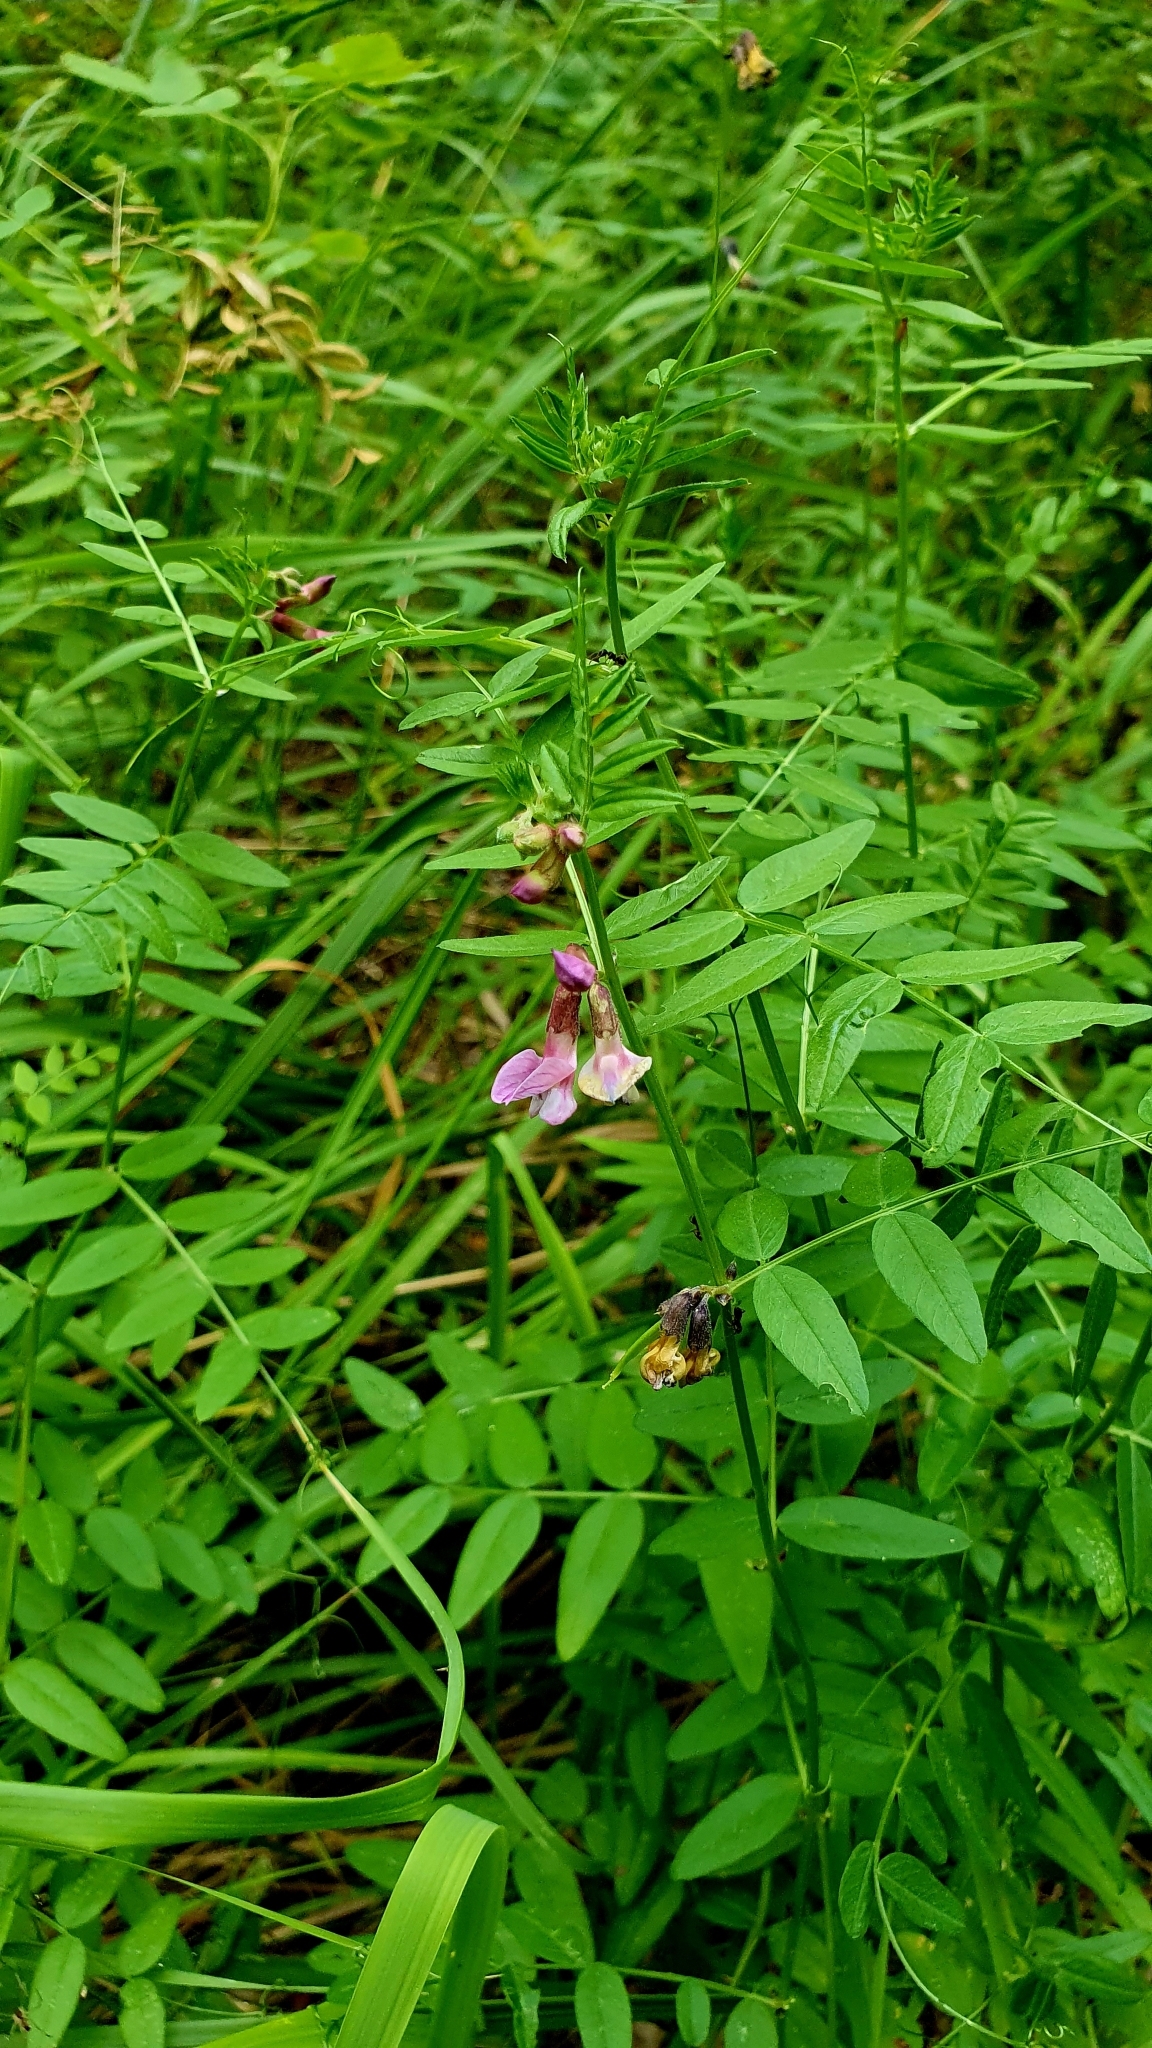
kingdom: Plantae
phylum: Tracheophyta
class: Magnoliopsida
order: Fabales
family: Fabaceae
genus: Vicia
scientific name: Vicia sepium
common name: Bush vetch
